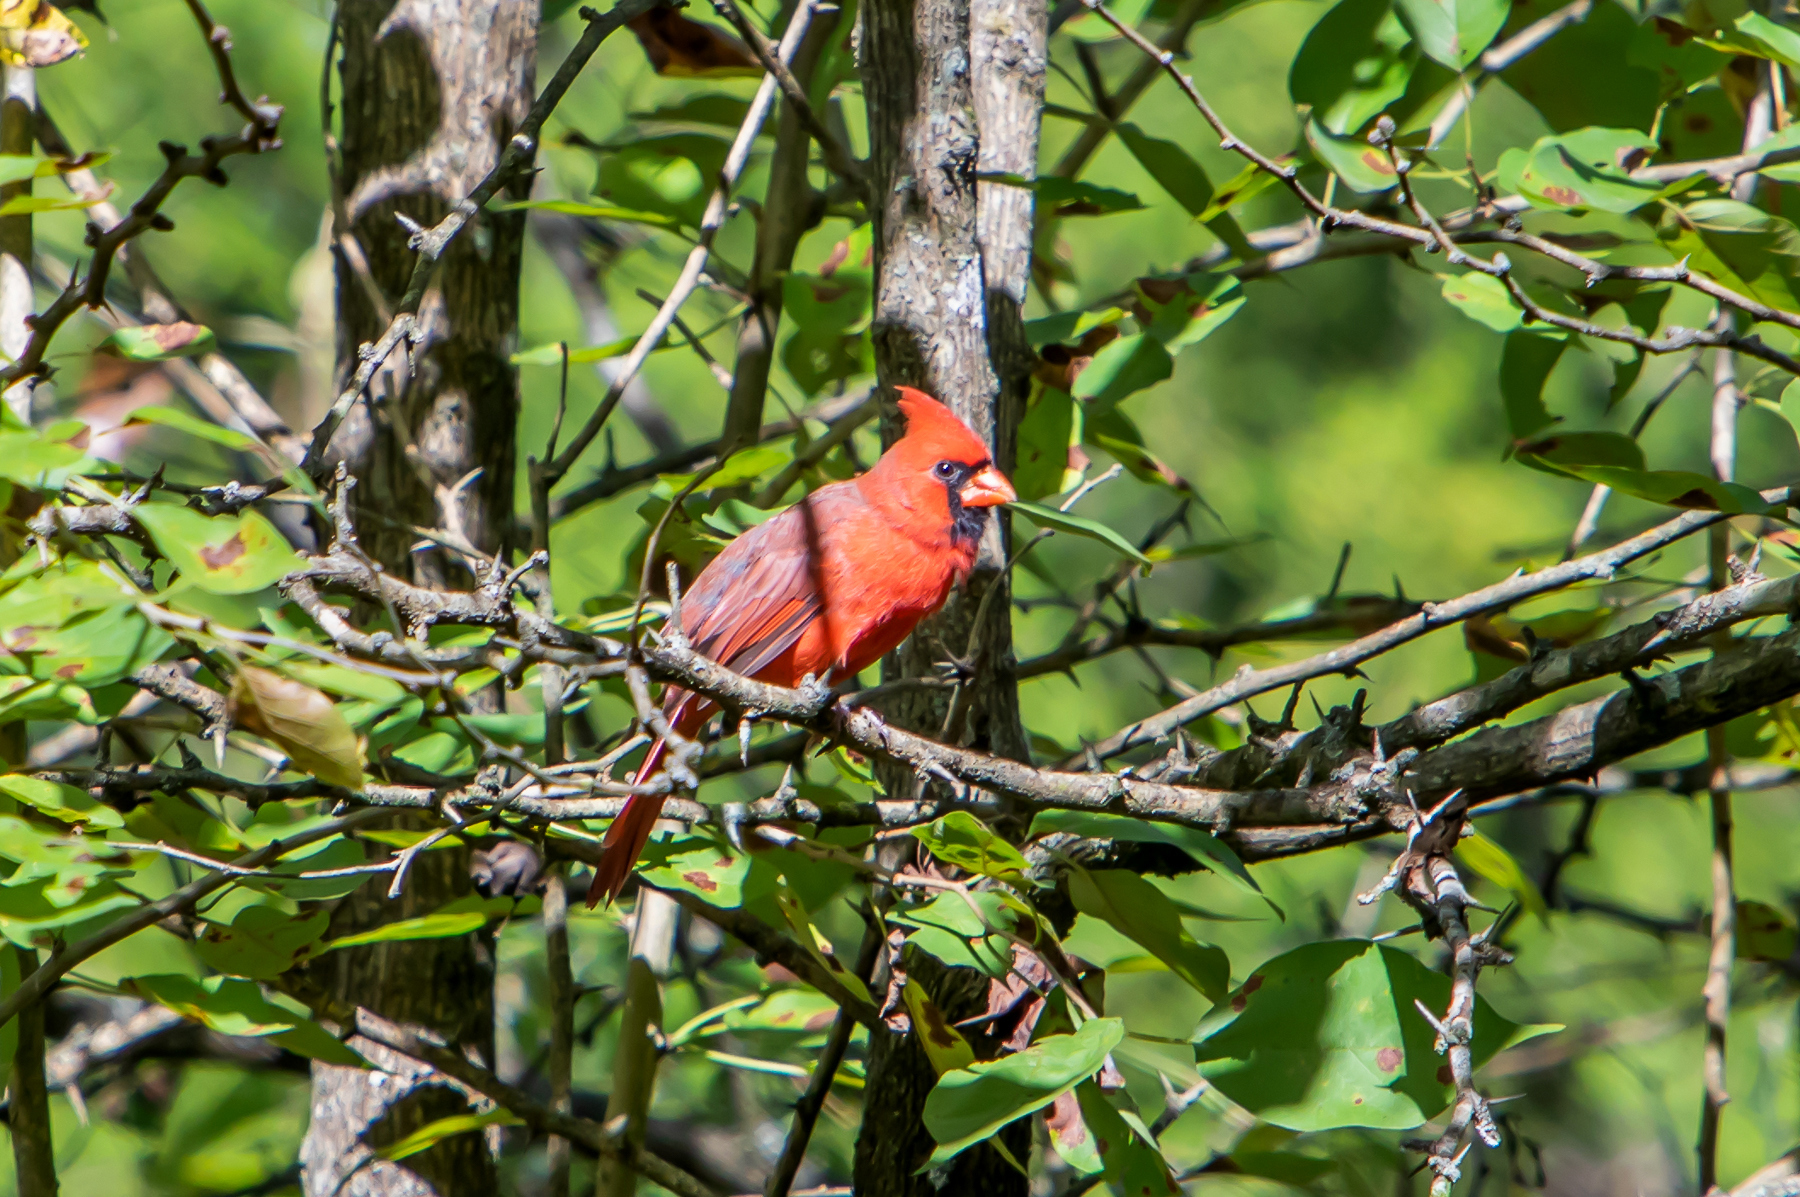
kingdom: Animalia
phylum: Chordata
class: Aves
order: Passeriformes
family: Cardinalidae
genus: Cardinalis
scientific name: Cardinalis cardinalis
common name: Northern cardinal
